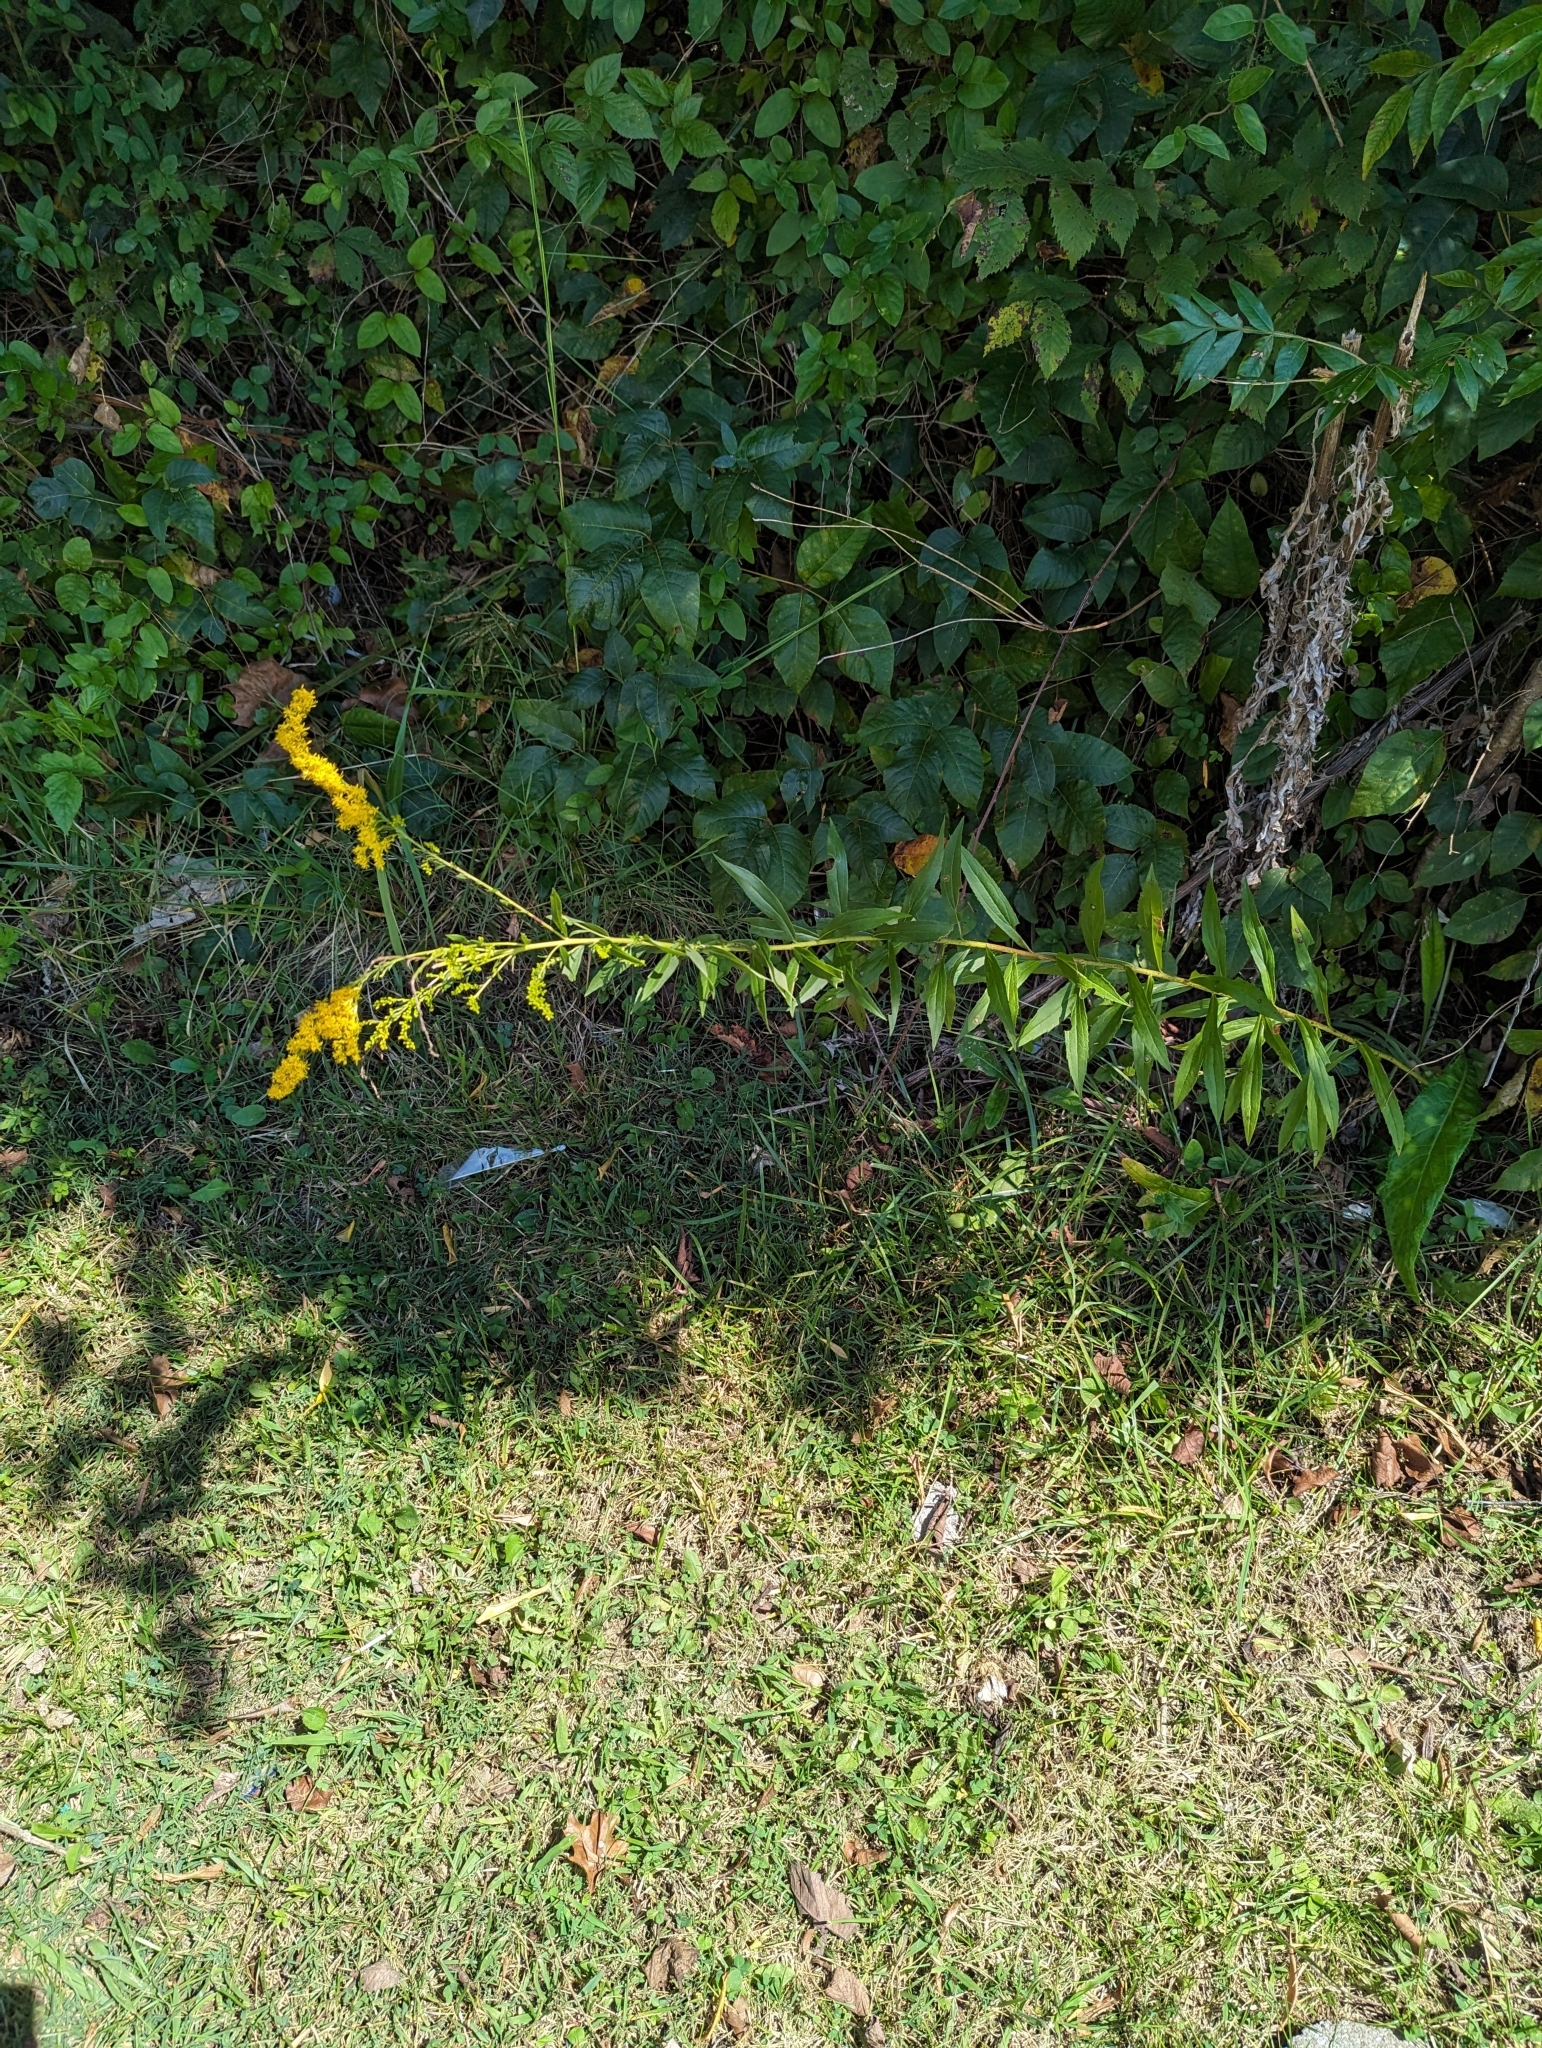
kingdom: Plantae
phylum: Tracheophyta
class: Magnoliopsida
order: Asterales
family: Asteraceae
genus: Solidago
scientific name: Solidago altissima
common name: Late goldenrod
